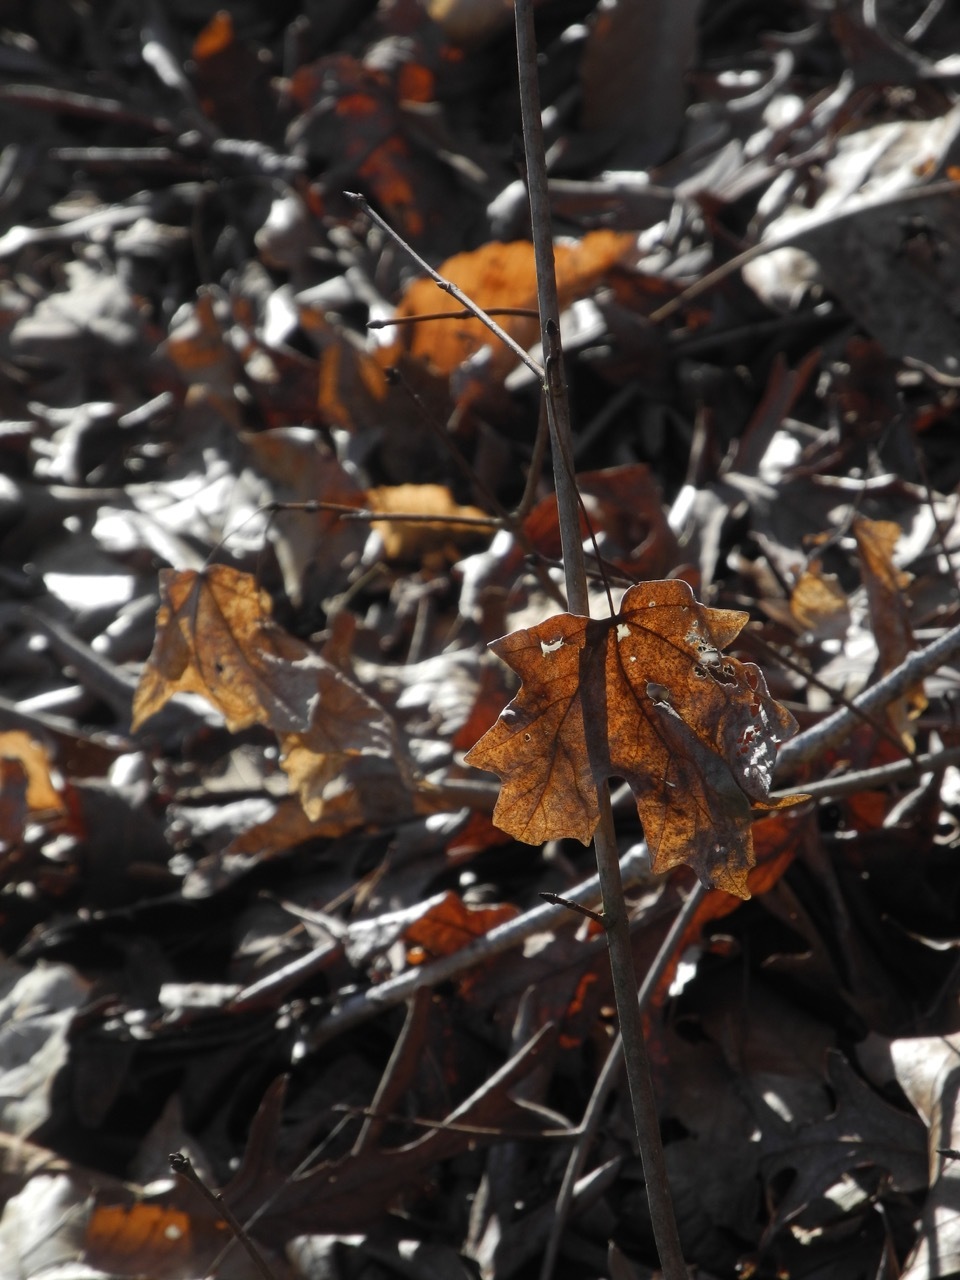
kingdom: Plantae
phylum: Tracheophyta
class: Magnoliopsida
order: Sapindales
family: Sapindaceae
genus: Acer
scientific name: Acer floridanum
